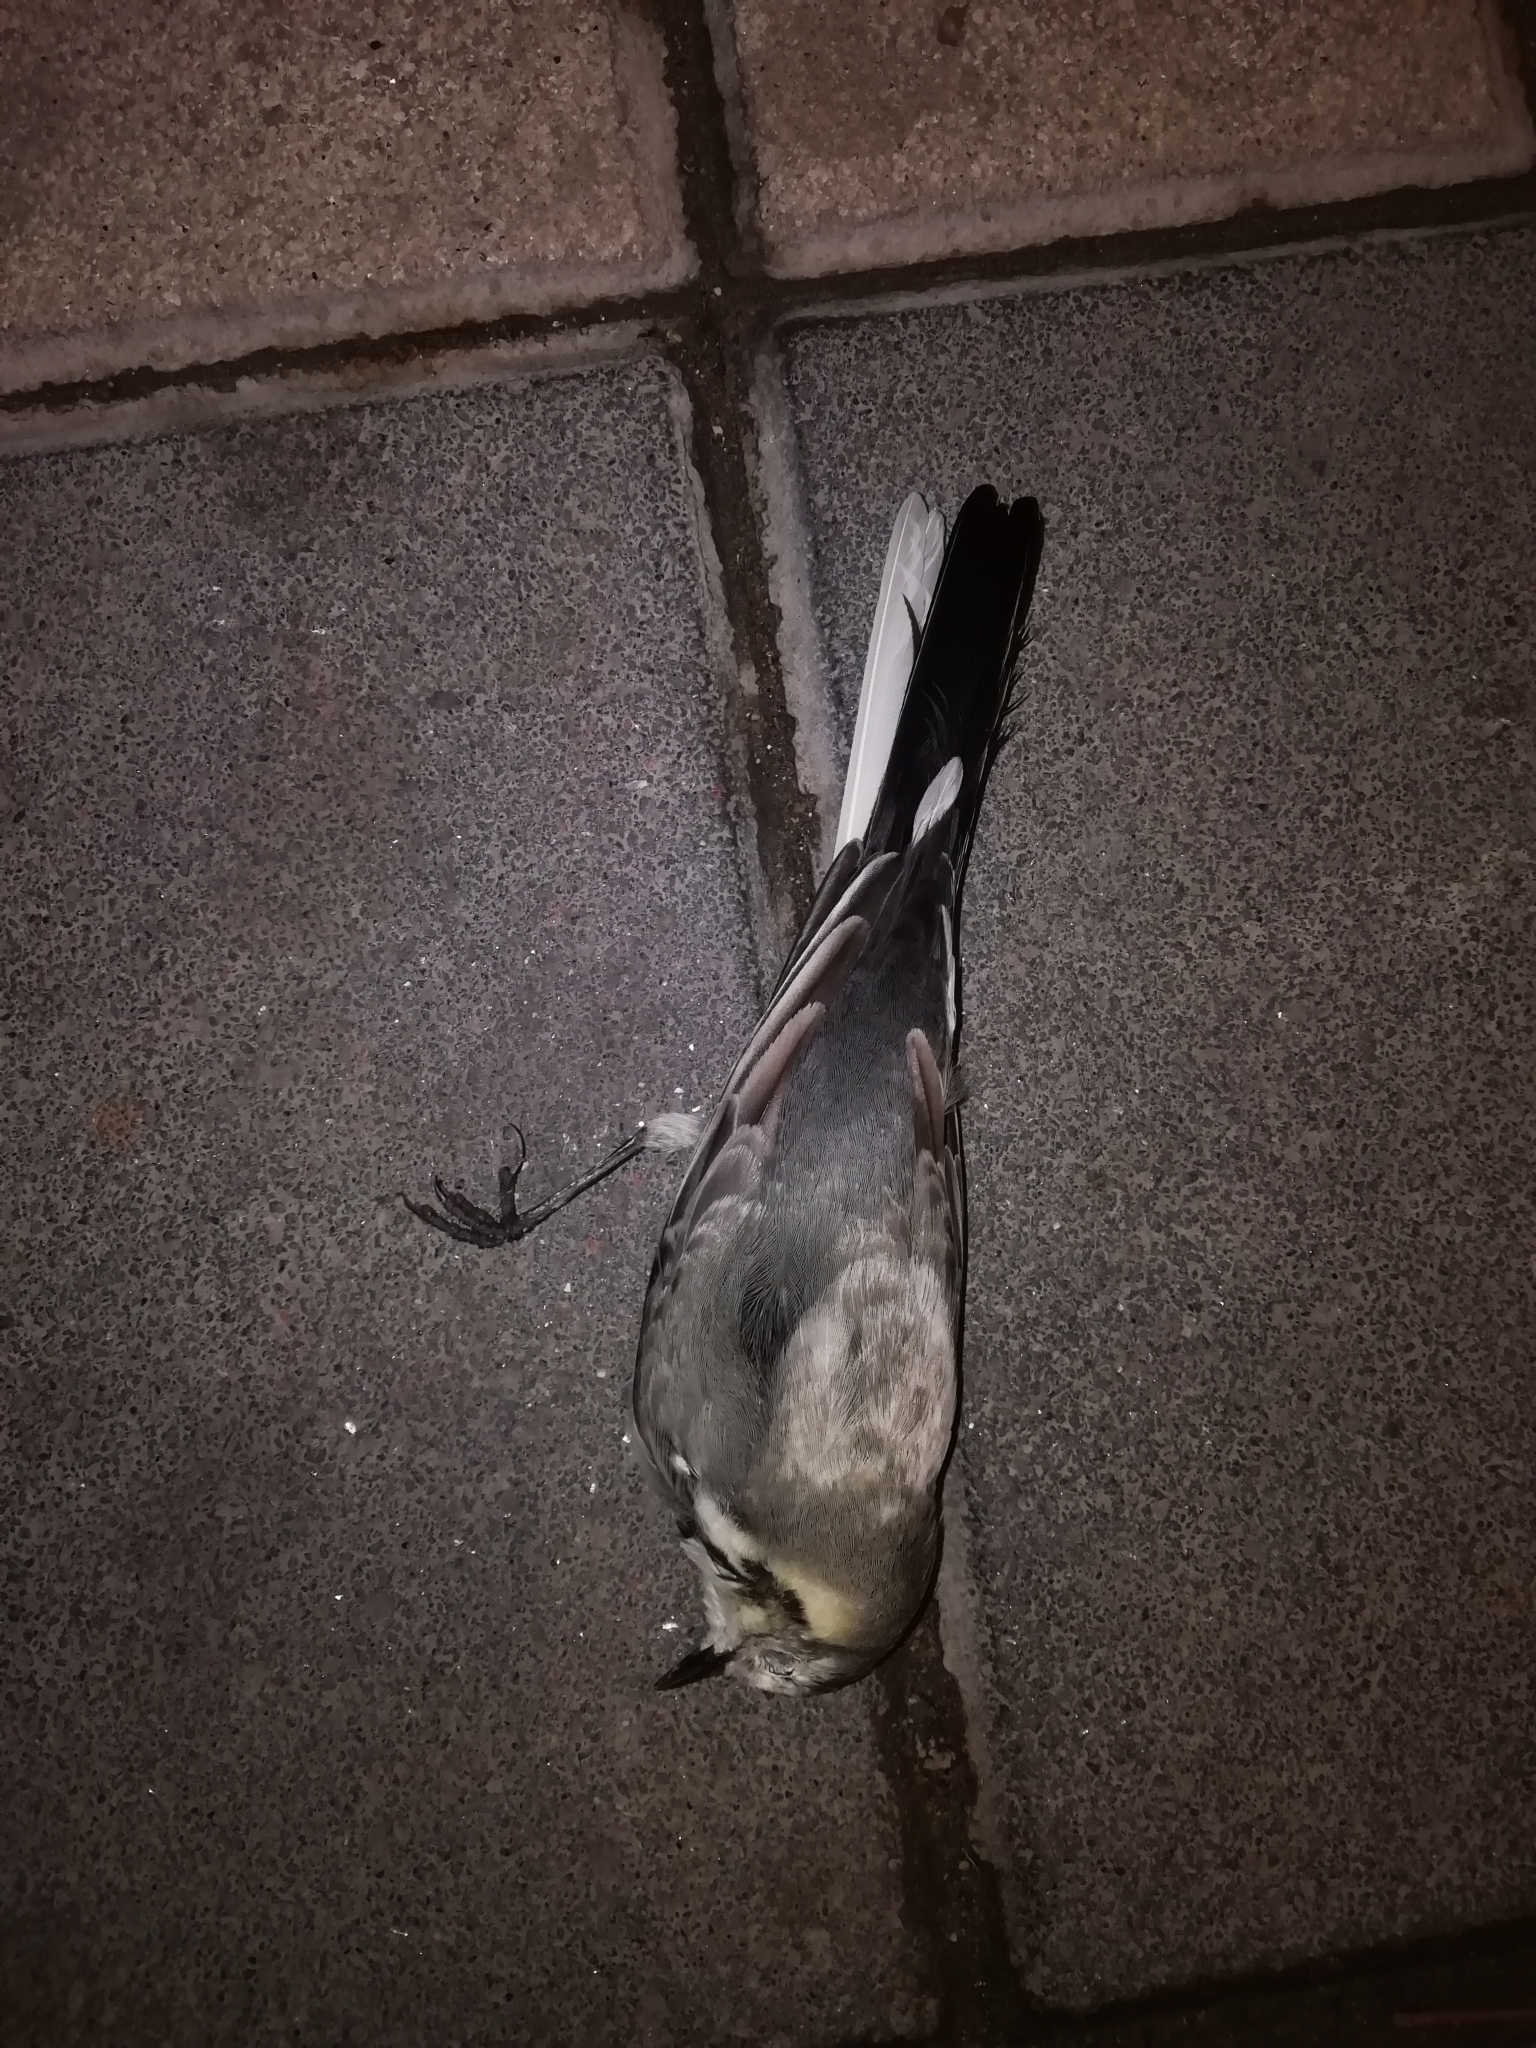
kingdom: Animalia
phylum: Chordata
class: Aves
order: Passeriformes
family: Motacillidae
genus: Motacilla
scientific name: Motacilla alba
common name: White wagtail
